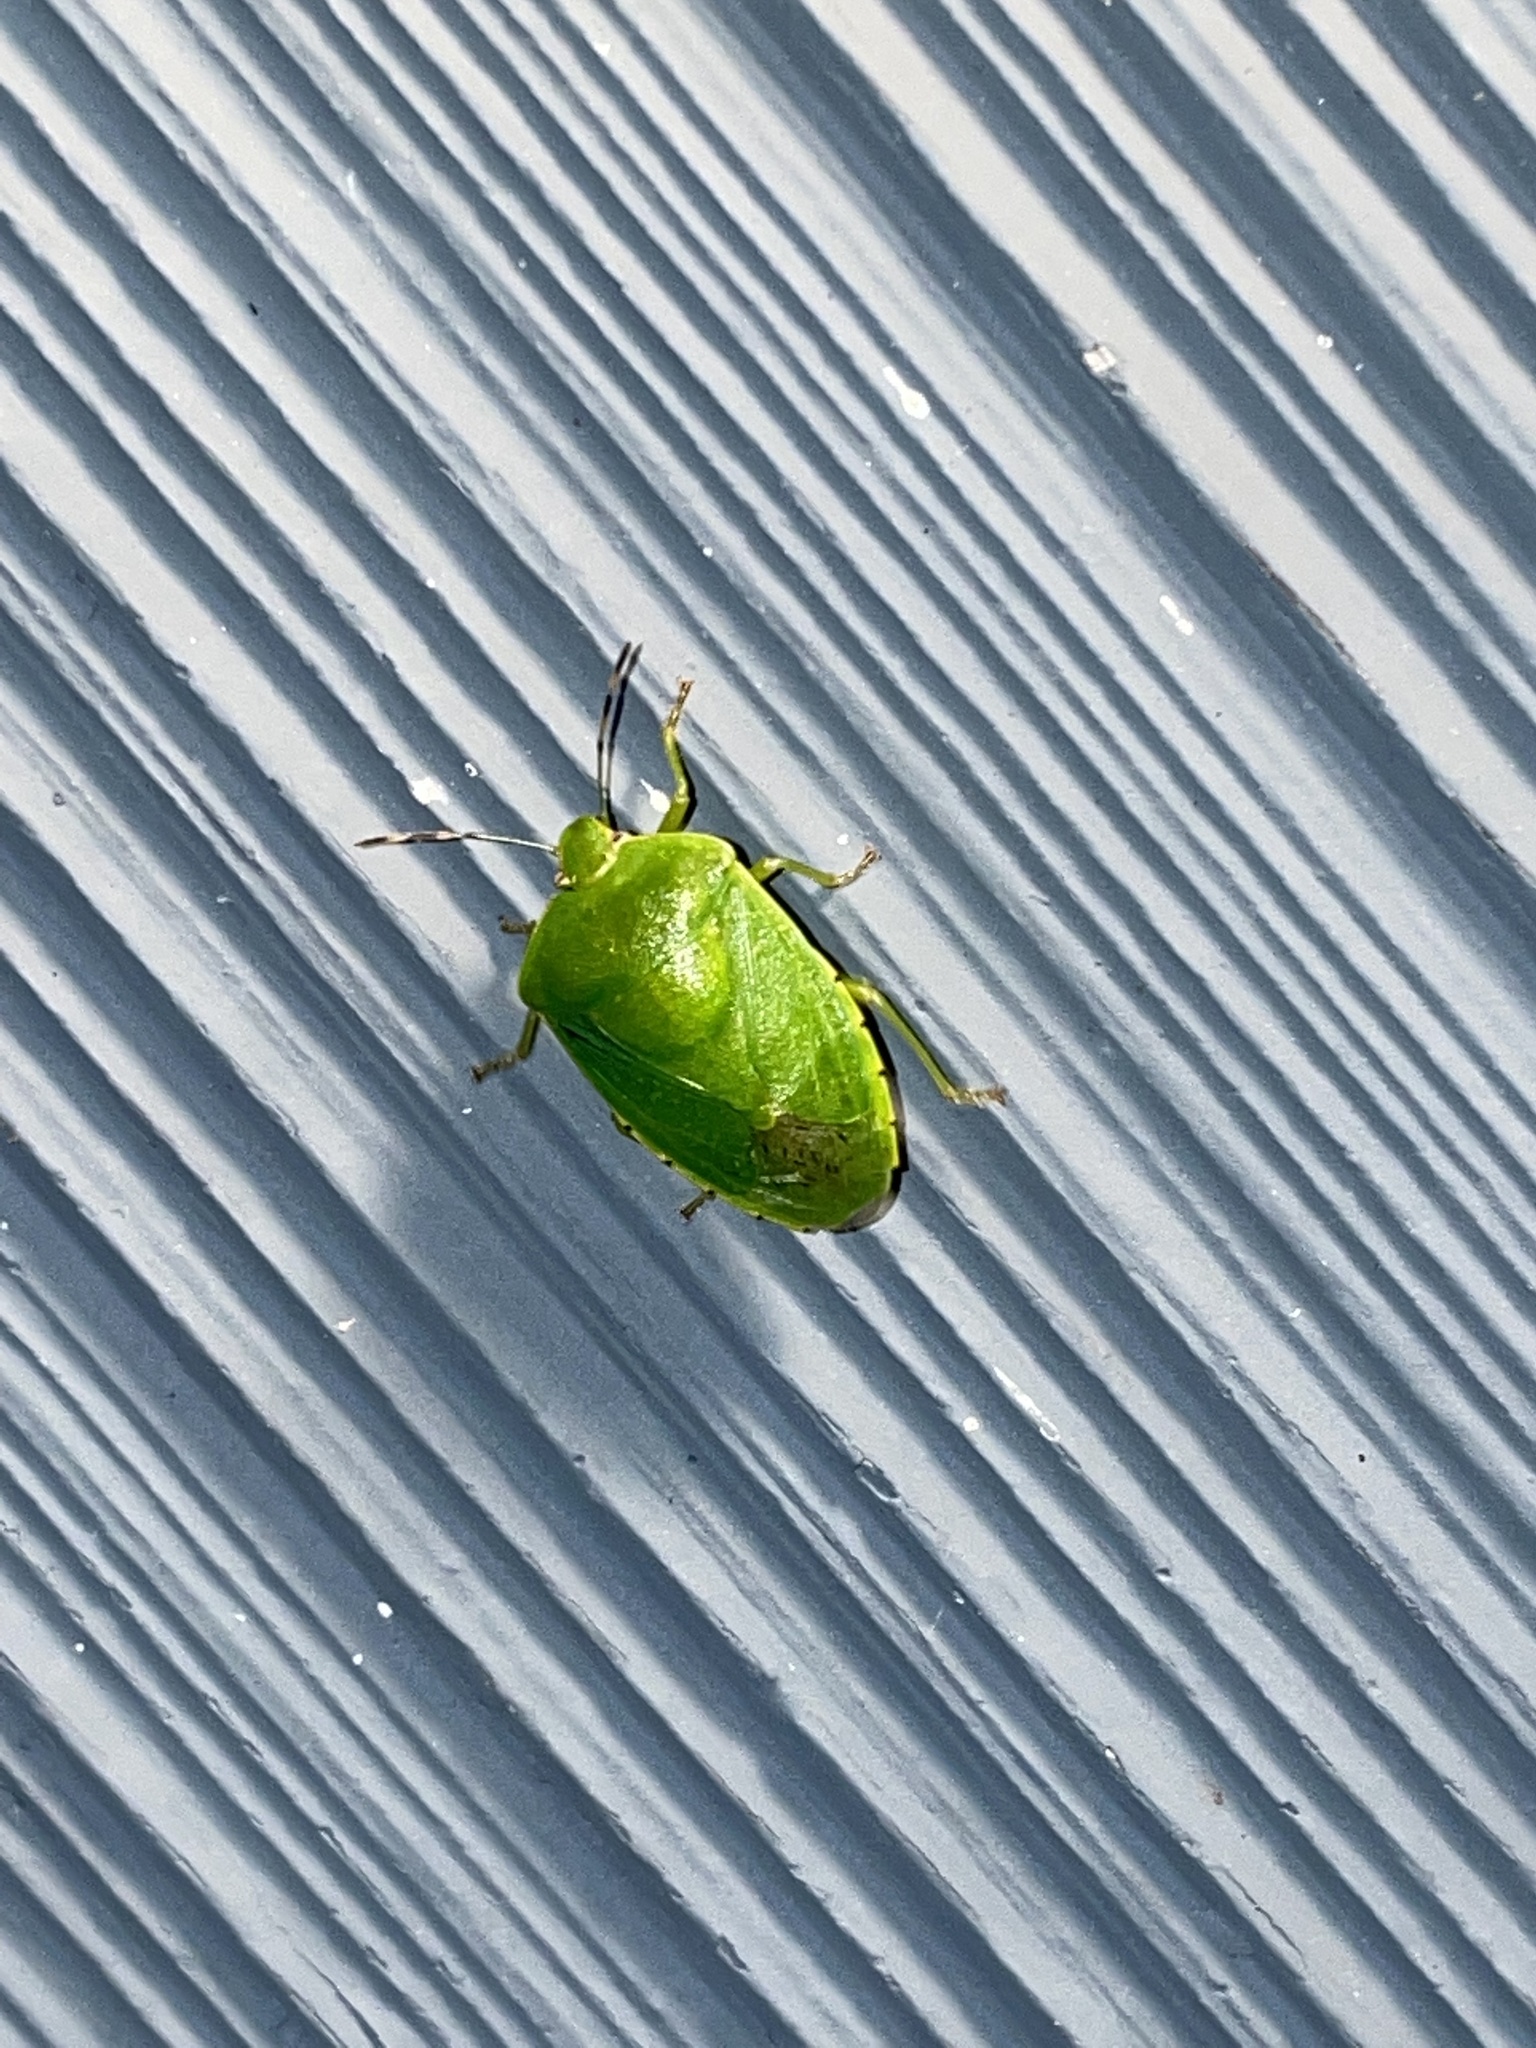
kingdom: Animalia
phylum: Arthropoda
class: Insecta
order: Hemiptera
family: Pentatomidae
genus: Chinavia
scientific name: Chinavia hilaris
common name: Green stink bug
